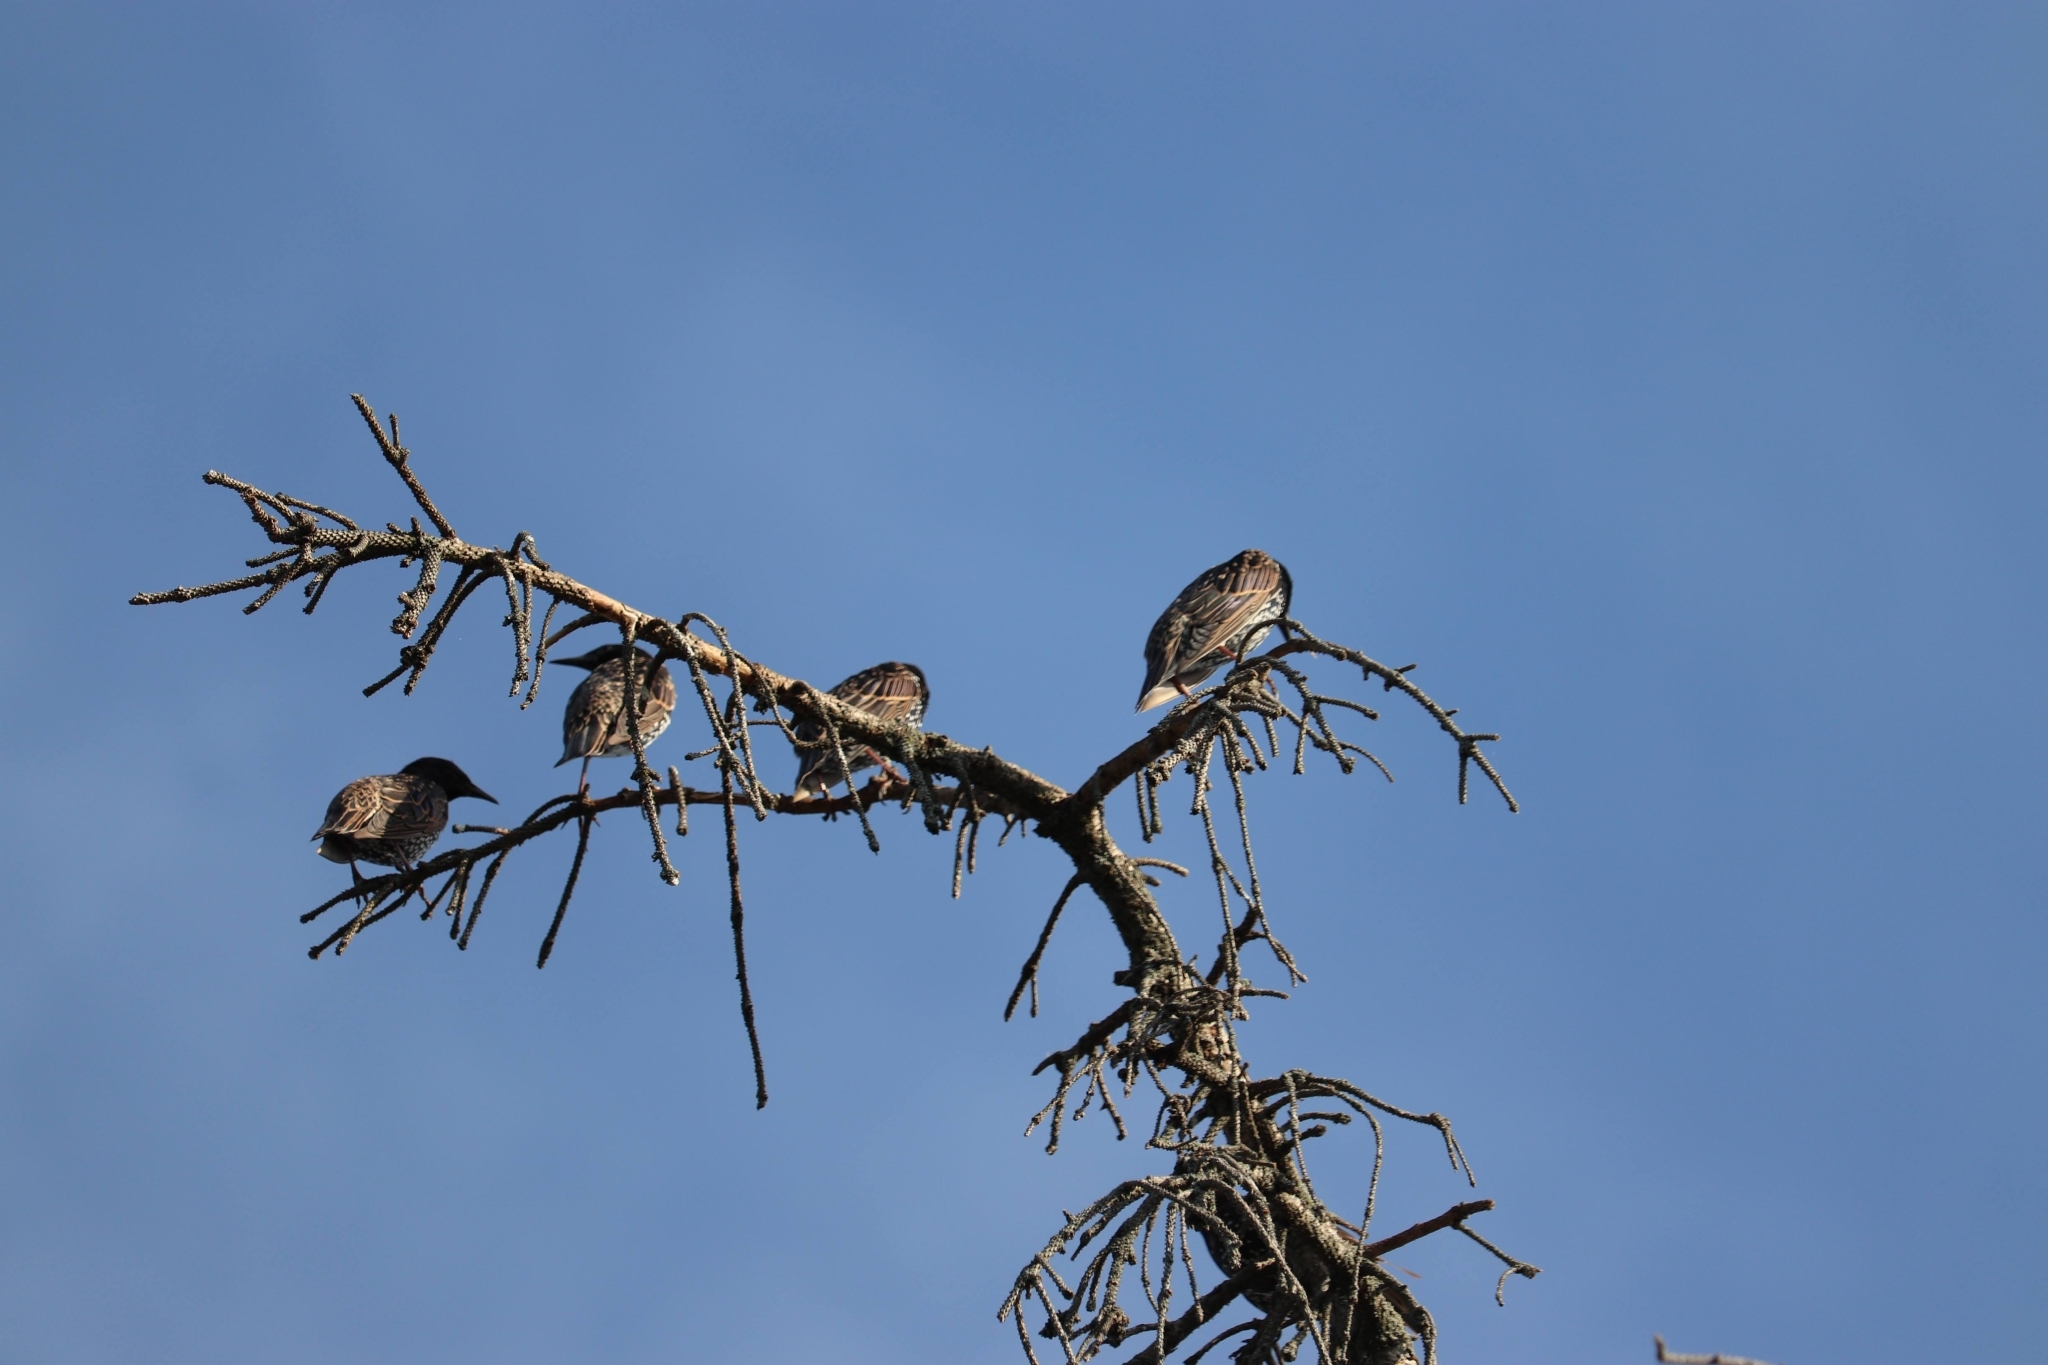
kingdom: Animalia
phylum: Chordata
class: Aves
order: Passeriformes
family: Sturnidae
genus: Sturnus
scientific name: Sturnus vulgaris
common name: Common starling
